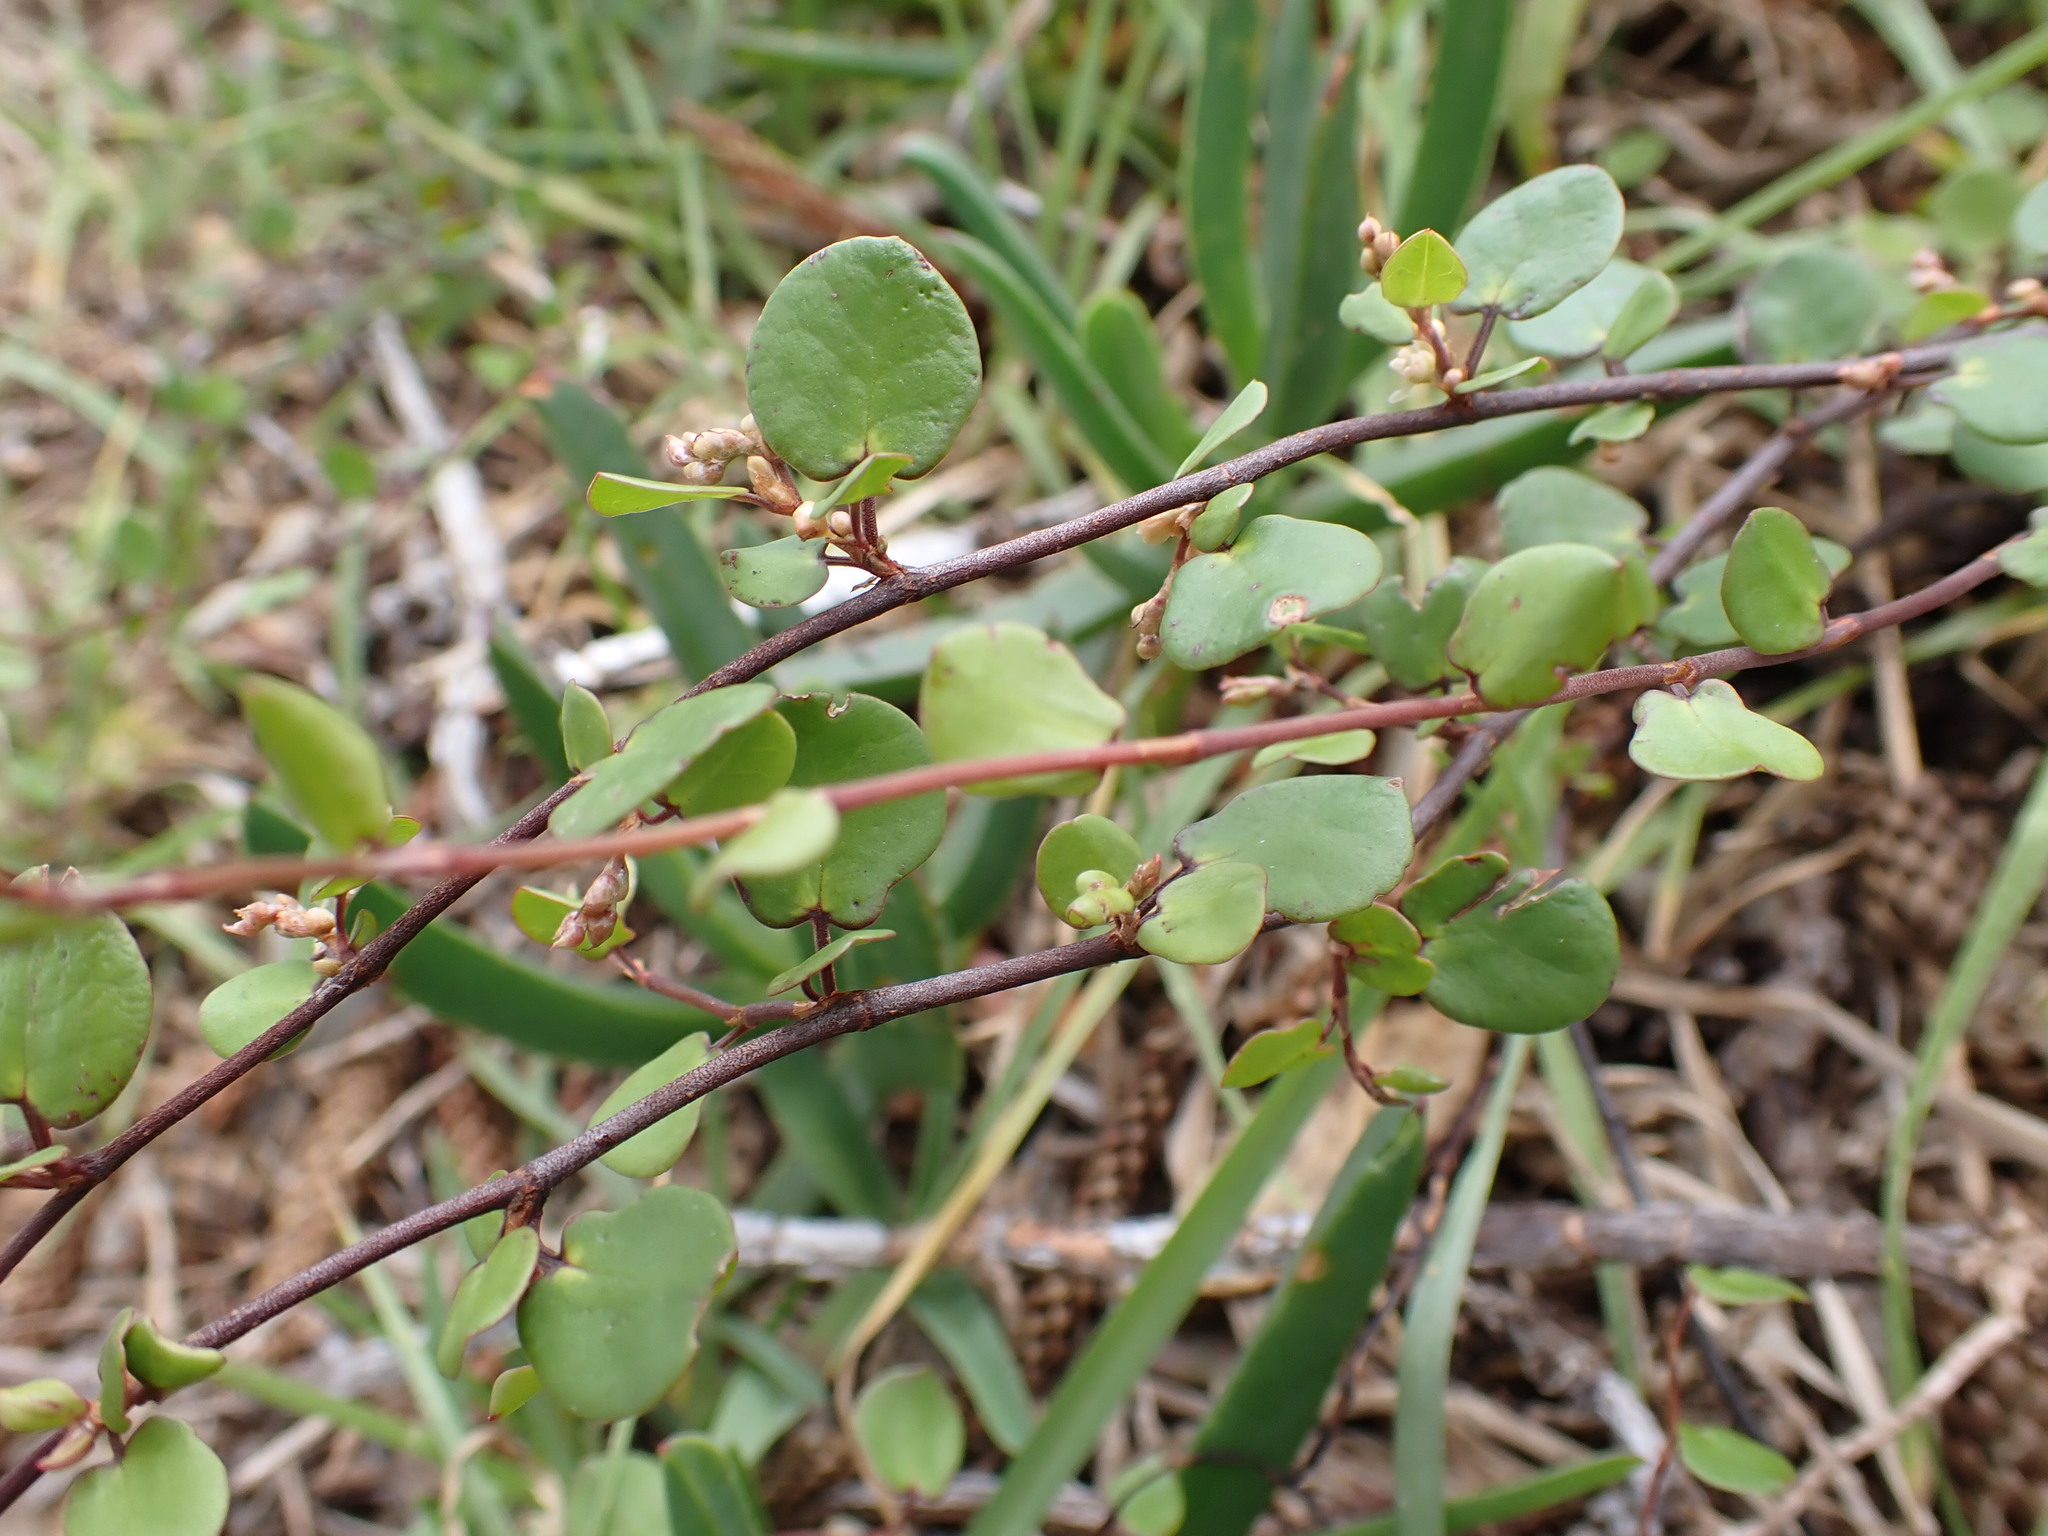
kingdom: Plantae
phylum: Tracheophyta
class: Magnoliopsida
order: Caryophyllales
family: Polygonaceae
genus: Muehlenbeckia
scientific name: Muehlenbeckia complexa
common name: Wireplant
